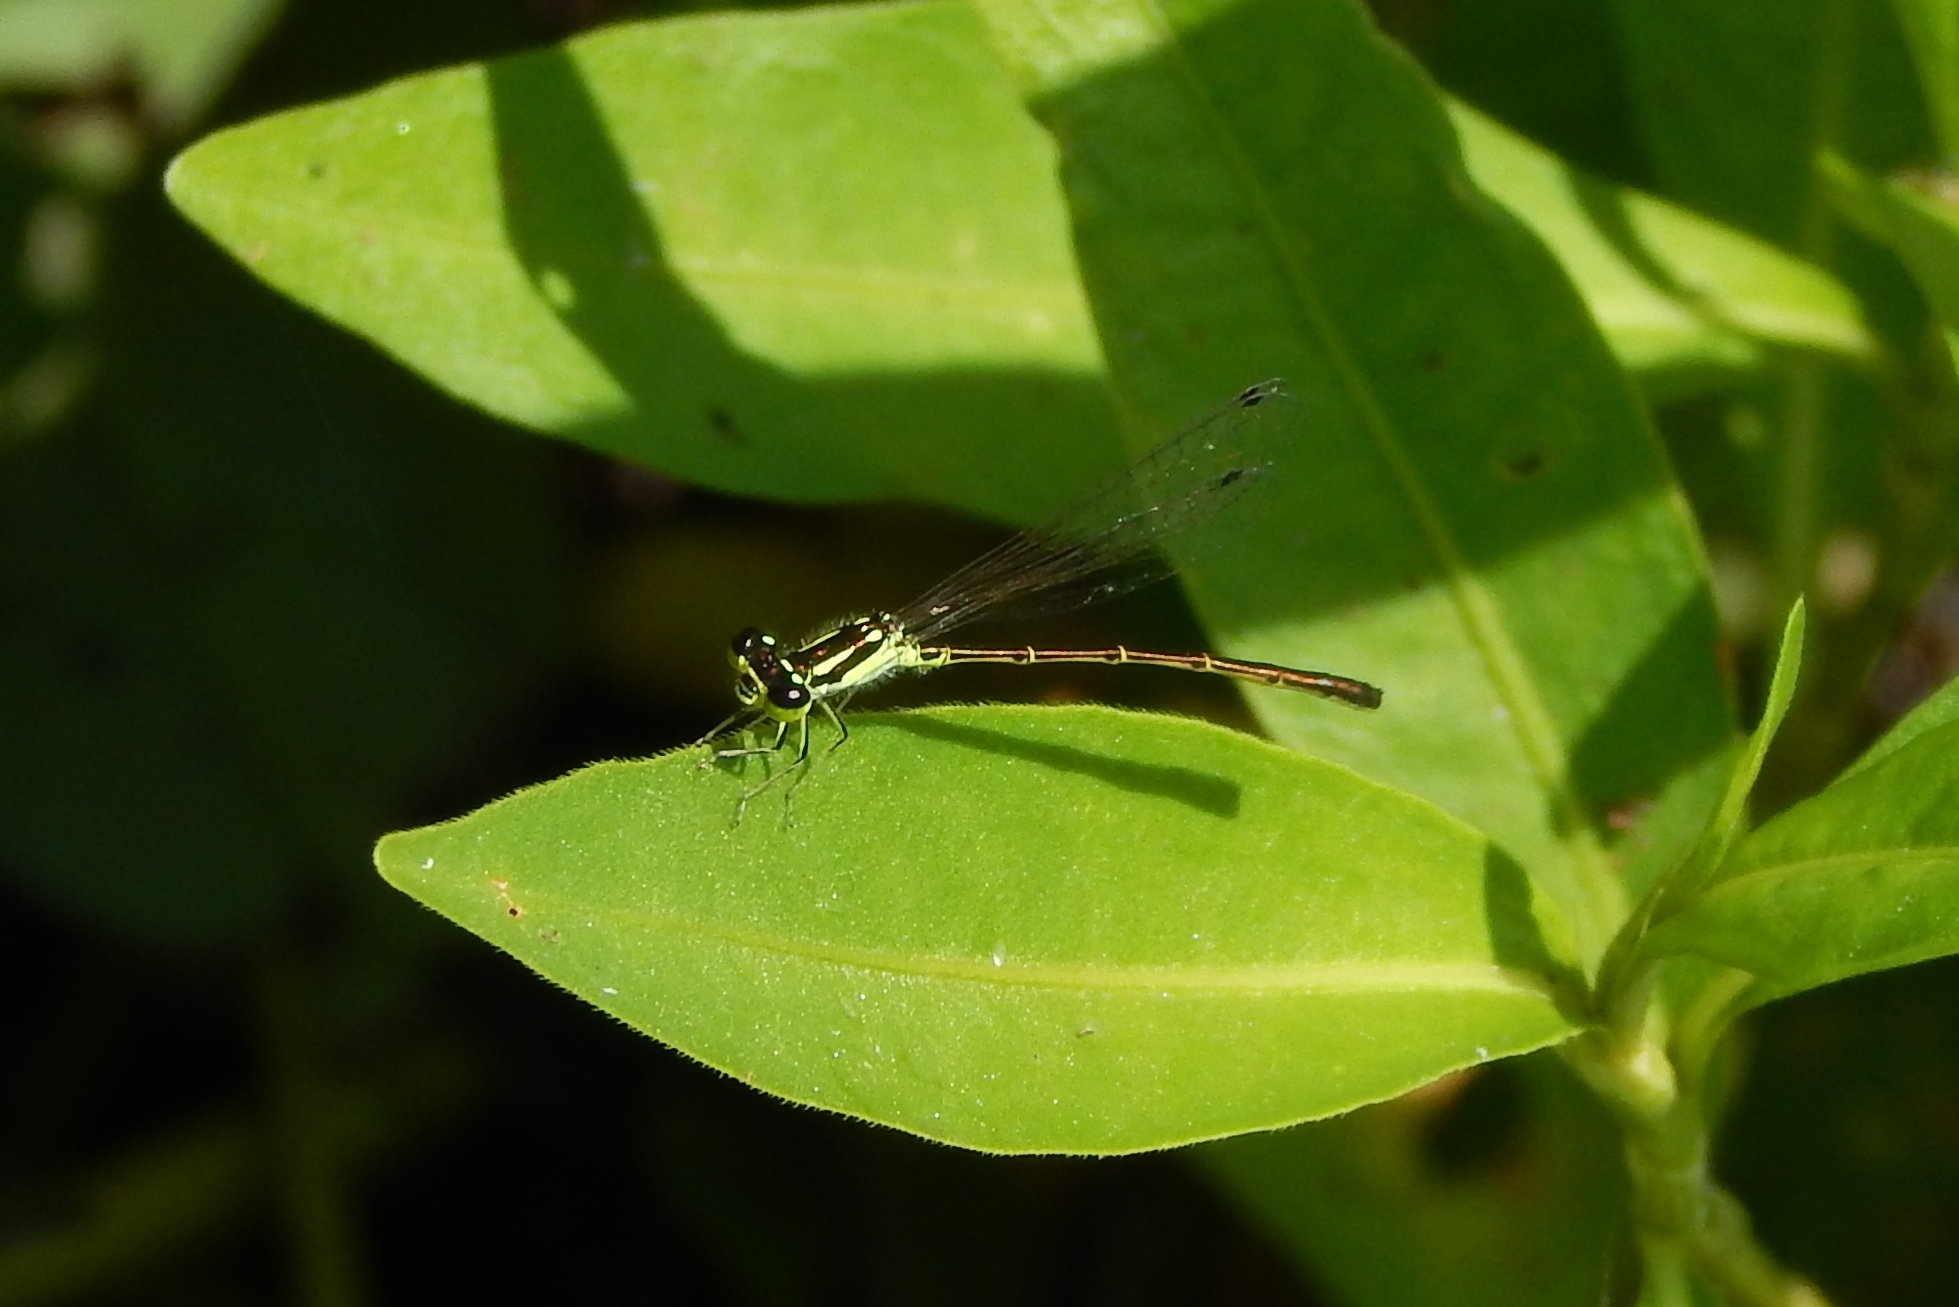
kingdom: Animalia
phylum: Arthropoda
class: Insecta
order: Odonata
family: Coenagrionidae
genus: Ischnura
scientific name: Ischnura posita
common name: Fragile forktail
